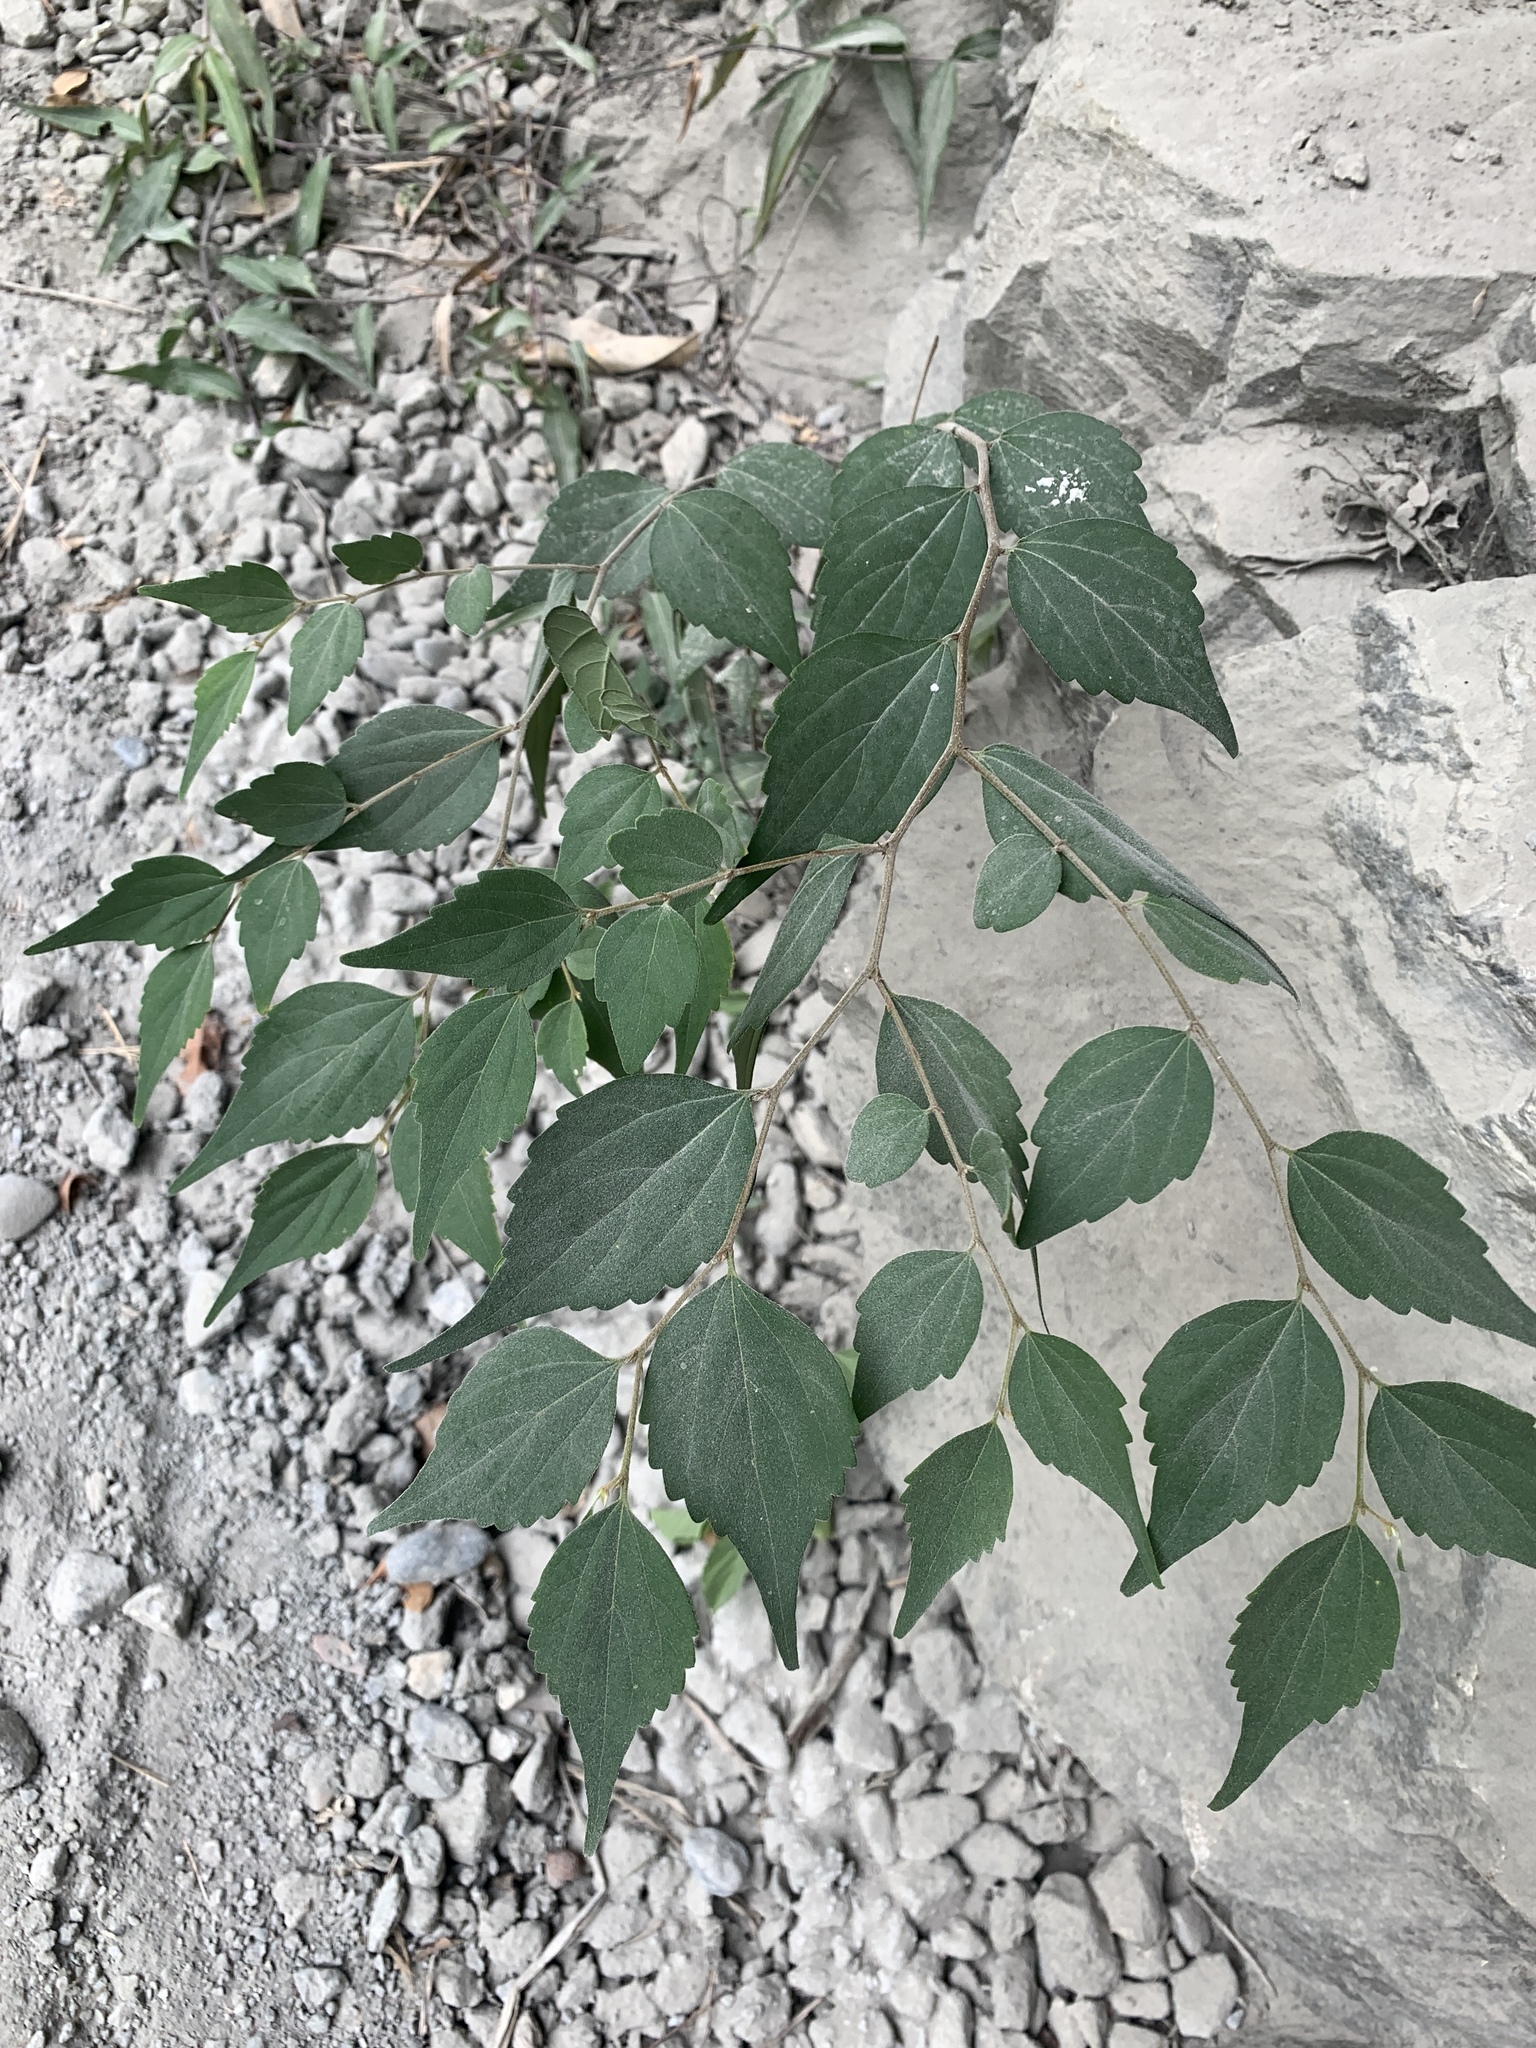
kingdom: Plantae
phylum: Tracheophyta
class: Magnoliopsida
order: Rosales
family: Cannabaceae
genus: Celtis
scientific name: Celtis biondii
